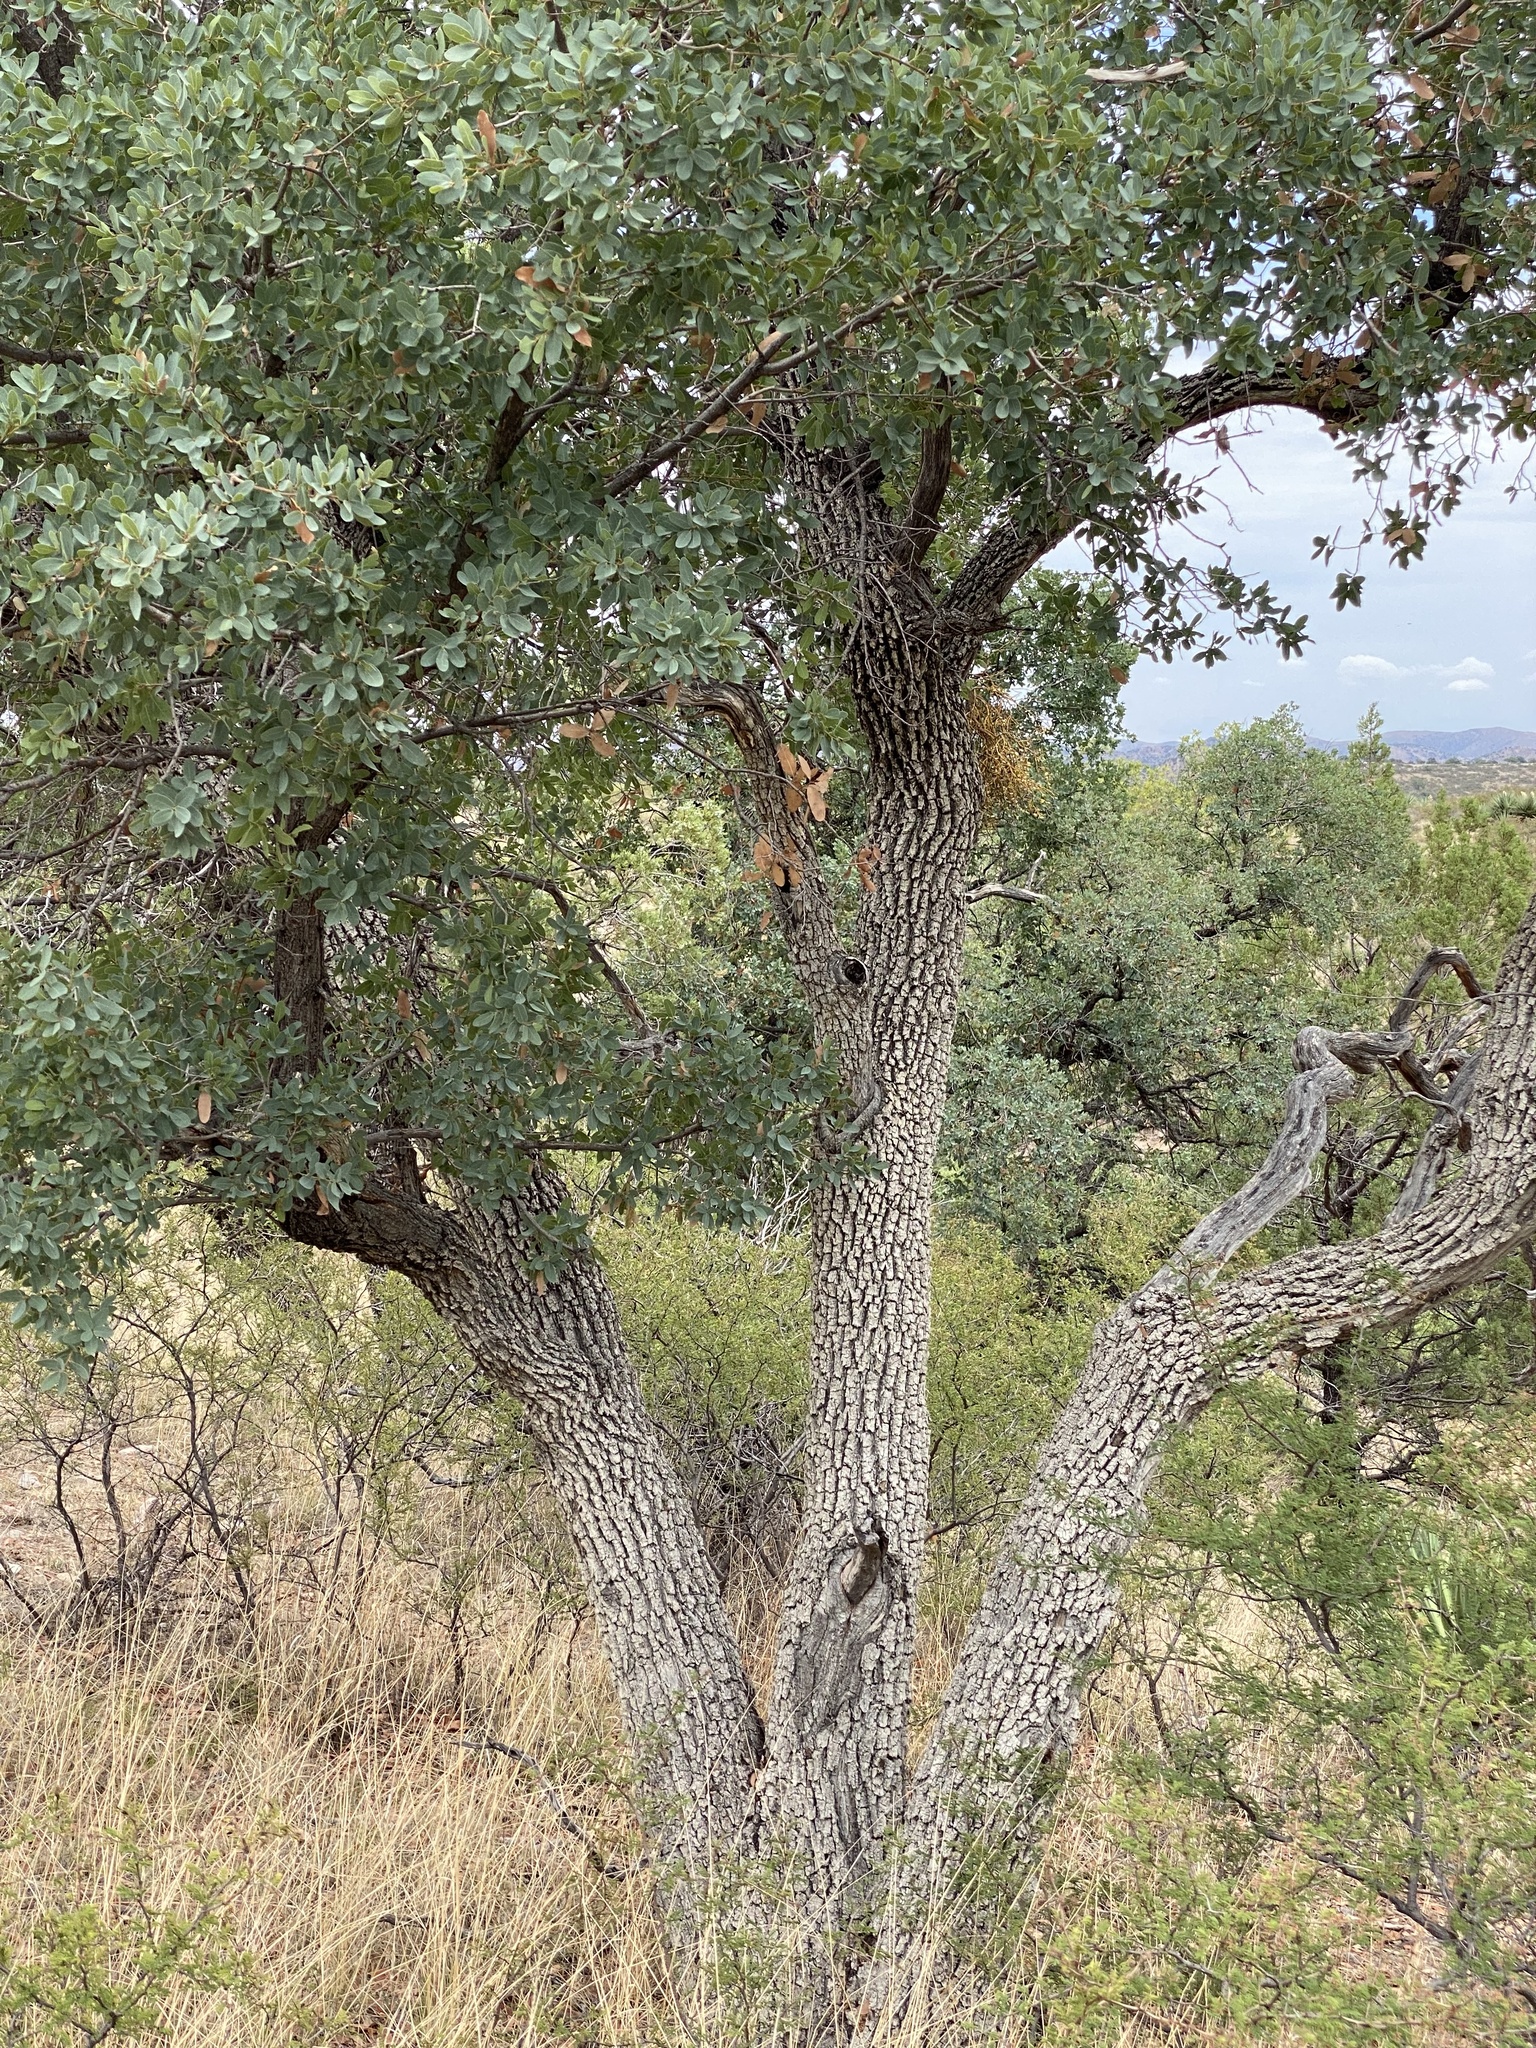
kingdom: Plantae
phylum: Tracheophyta
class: Magnoliopsida
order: Fagales
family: Fagaceae
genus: Quercus
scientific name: Quercus oblongifolia
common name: Mexican blue oak
